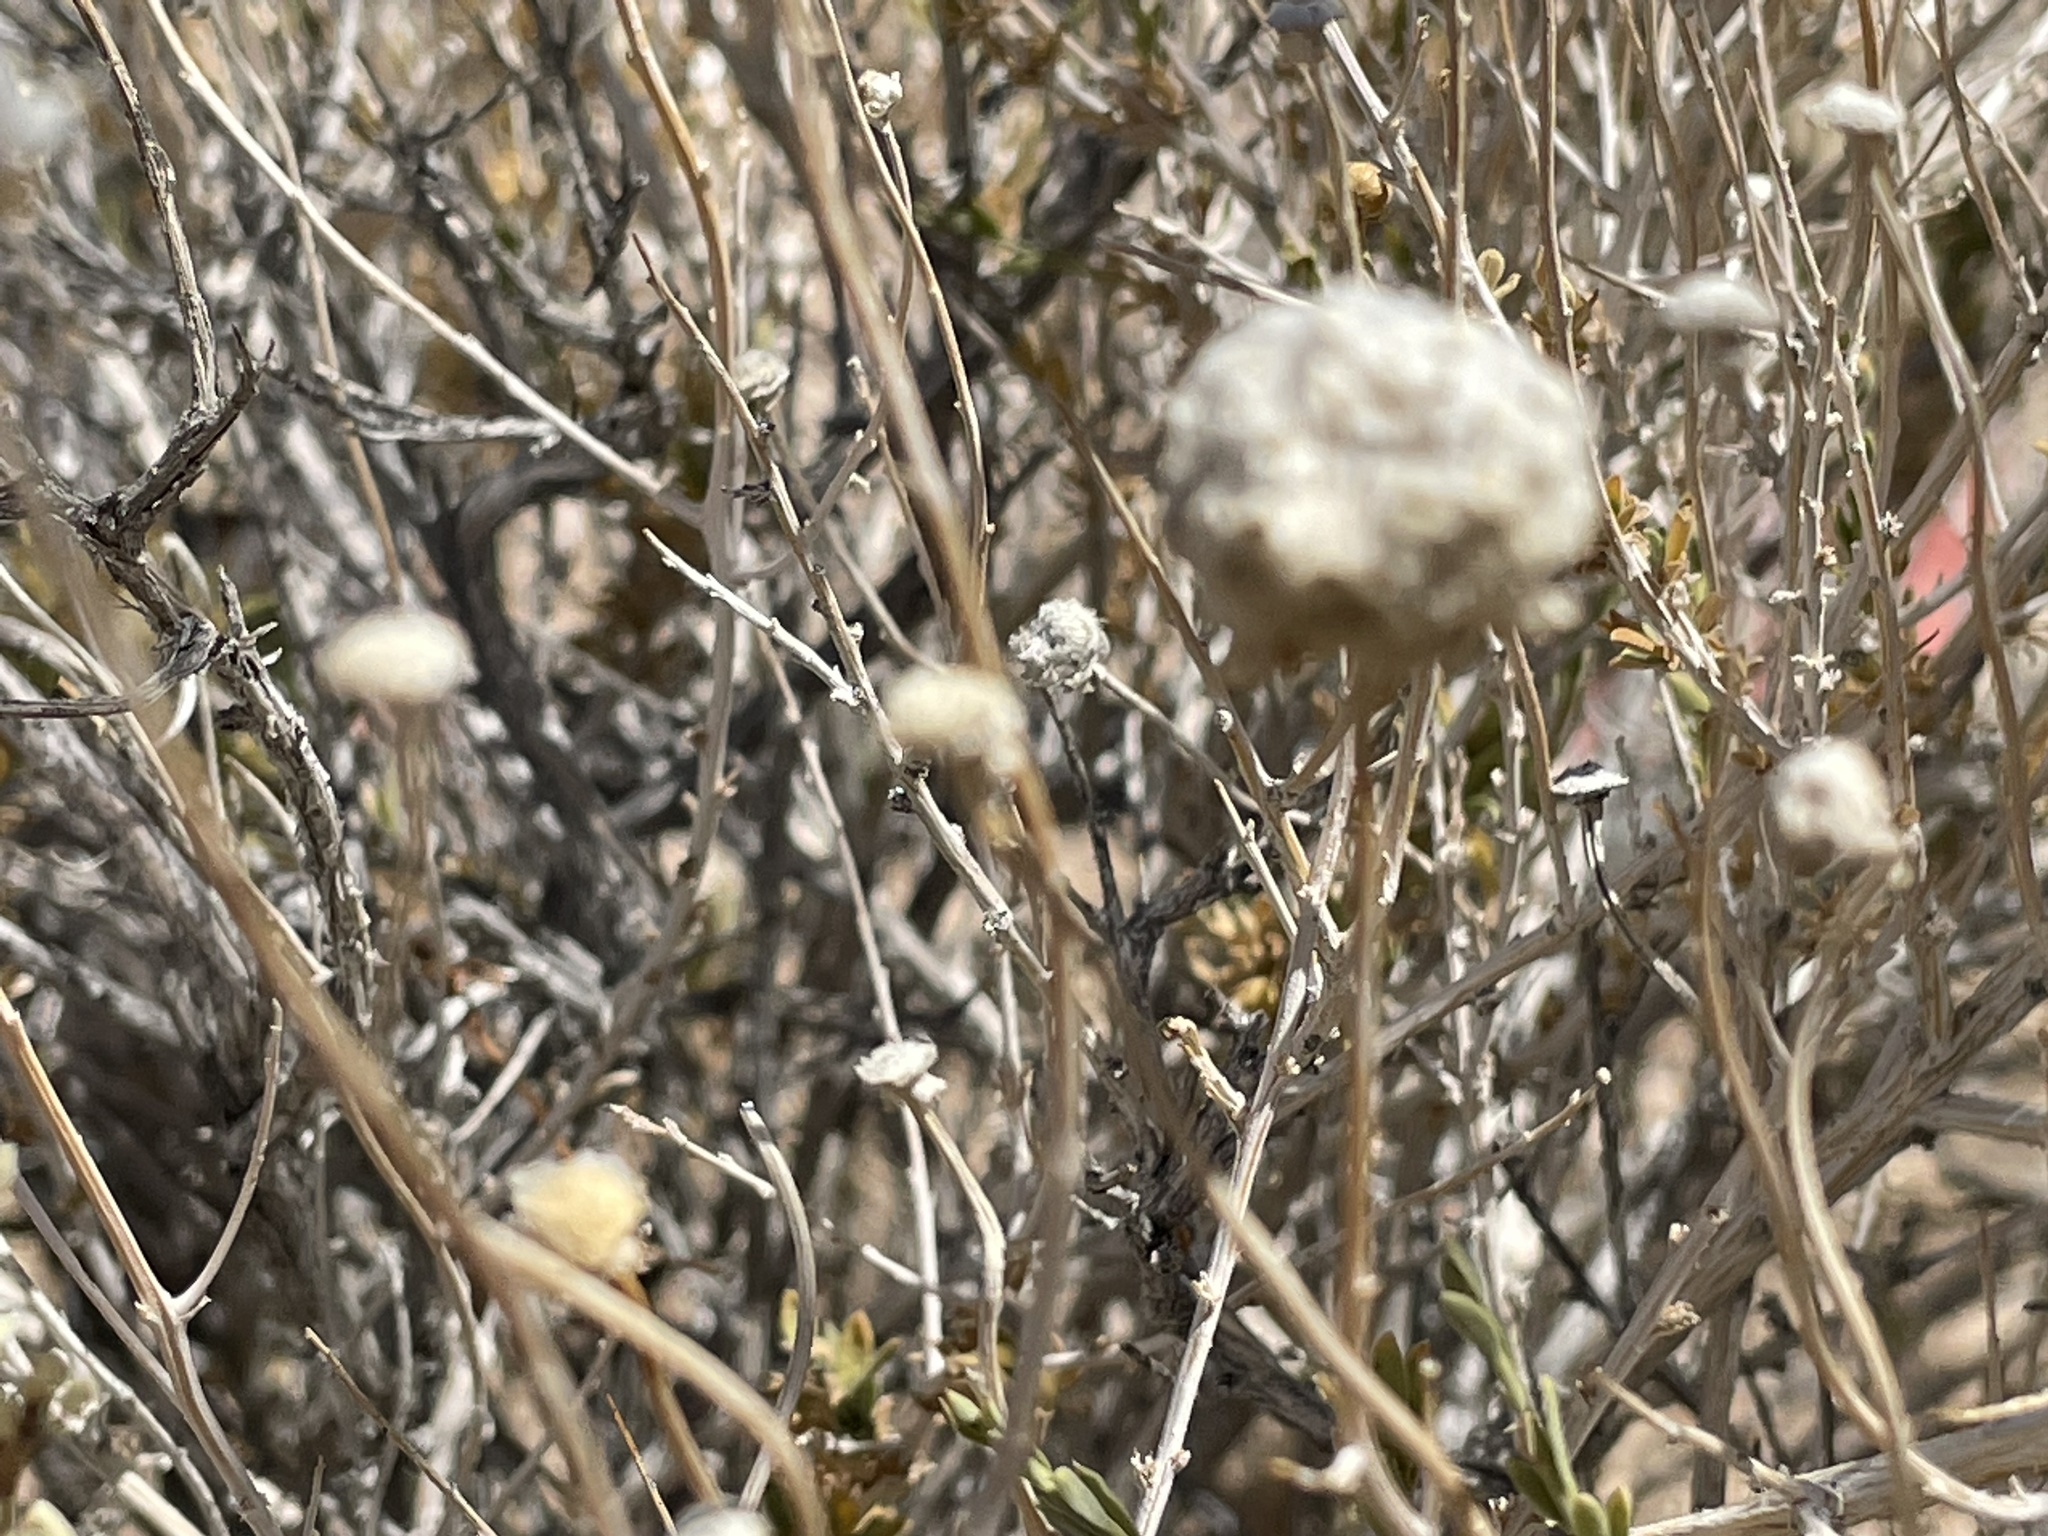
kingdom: Plantae
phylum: Tracheophyta
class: Magnoliopsida
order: Asterales
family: Asteraceae
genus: Acamptopappus
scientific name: Acamptopappus shockleyi
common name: Shockley's goldenhead
